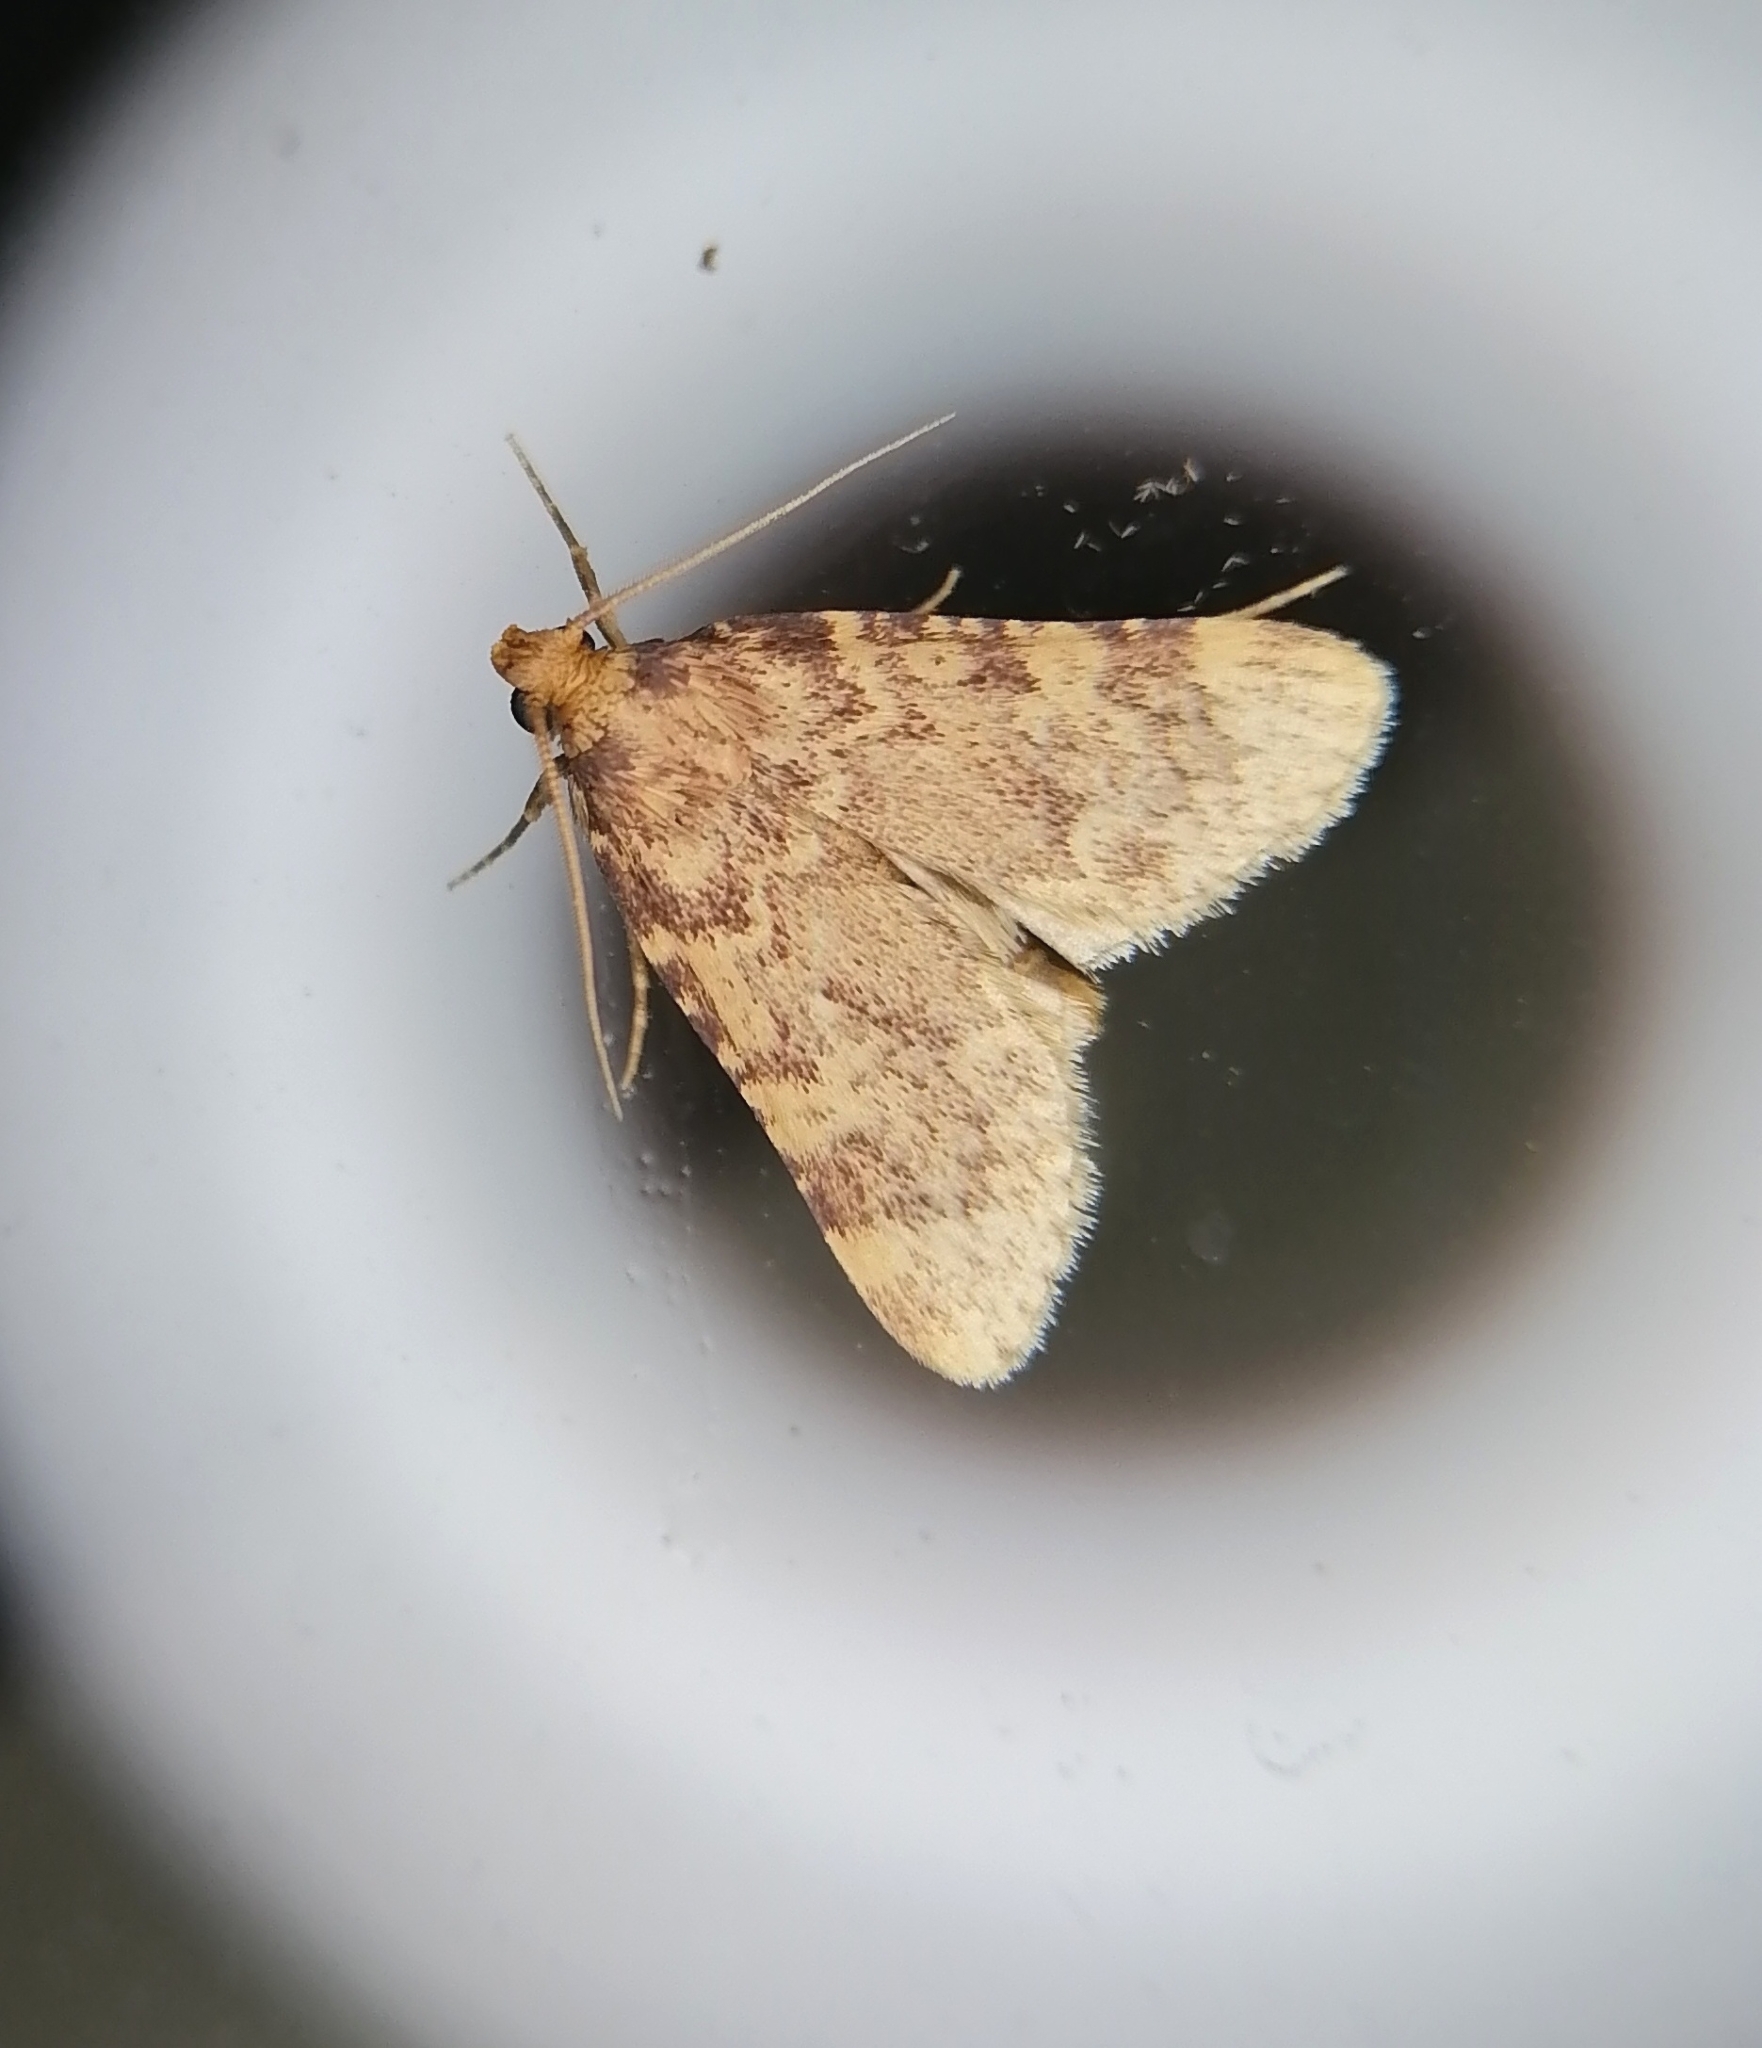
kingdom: Animalia
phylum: Arthropoda
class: Insecta
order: Lepidoptera
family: Pyralidae
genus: Aglossa
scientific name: Aglossa dimidiatus
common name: Tea tabby
